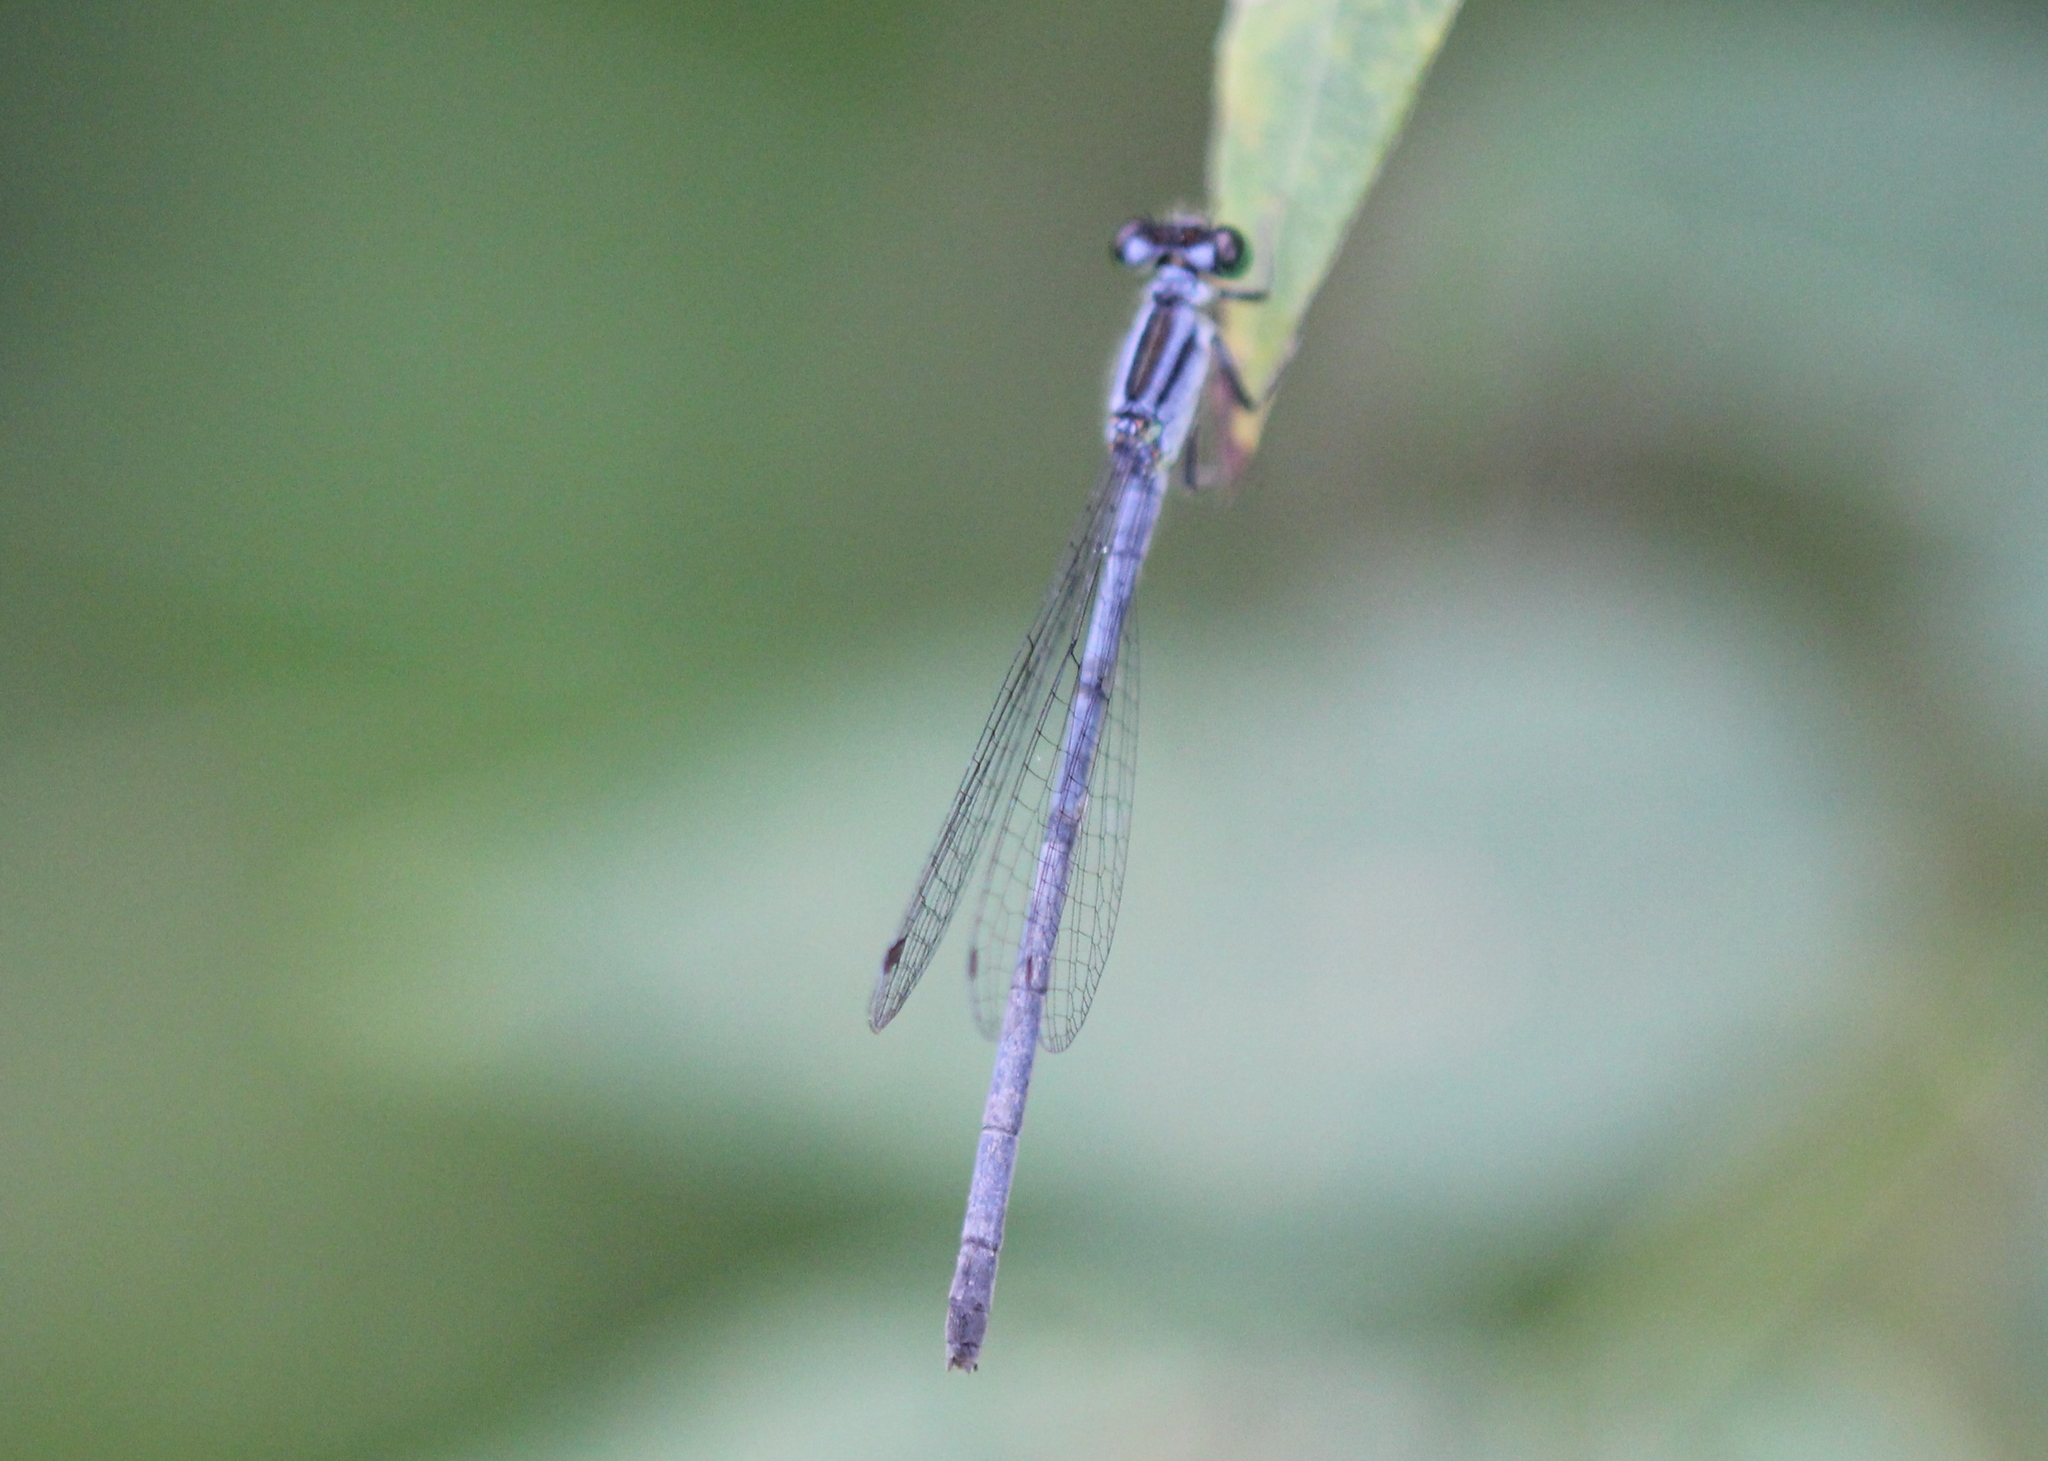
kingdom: Animalia
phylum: Arthropoda
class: Insecta
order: Odonata
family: Coenagrionidae
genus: Ischnura
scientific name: Ischnura verticalis
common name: Eastern forktail
